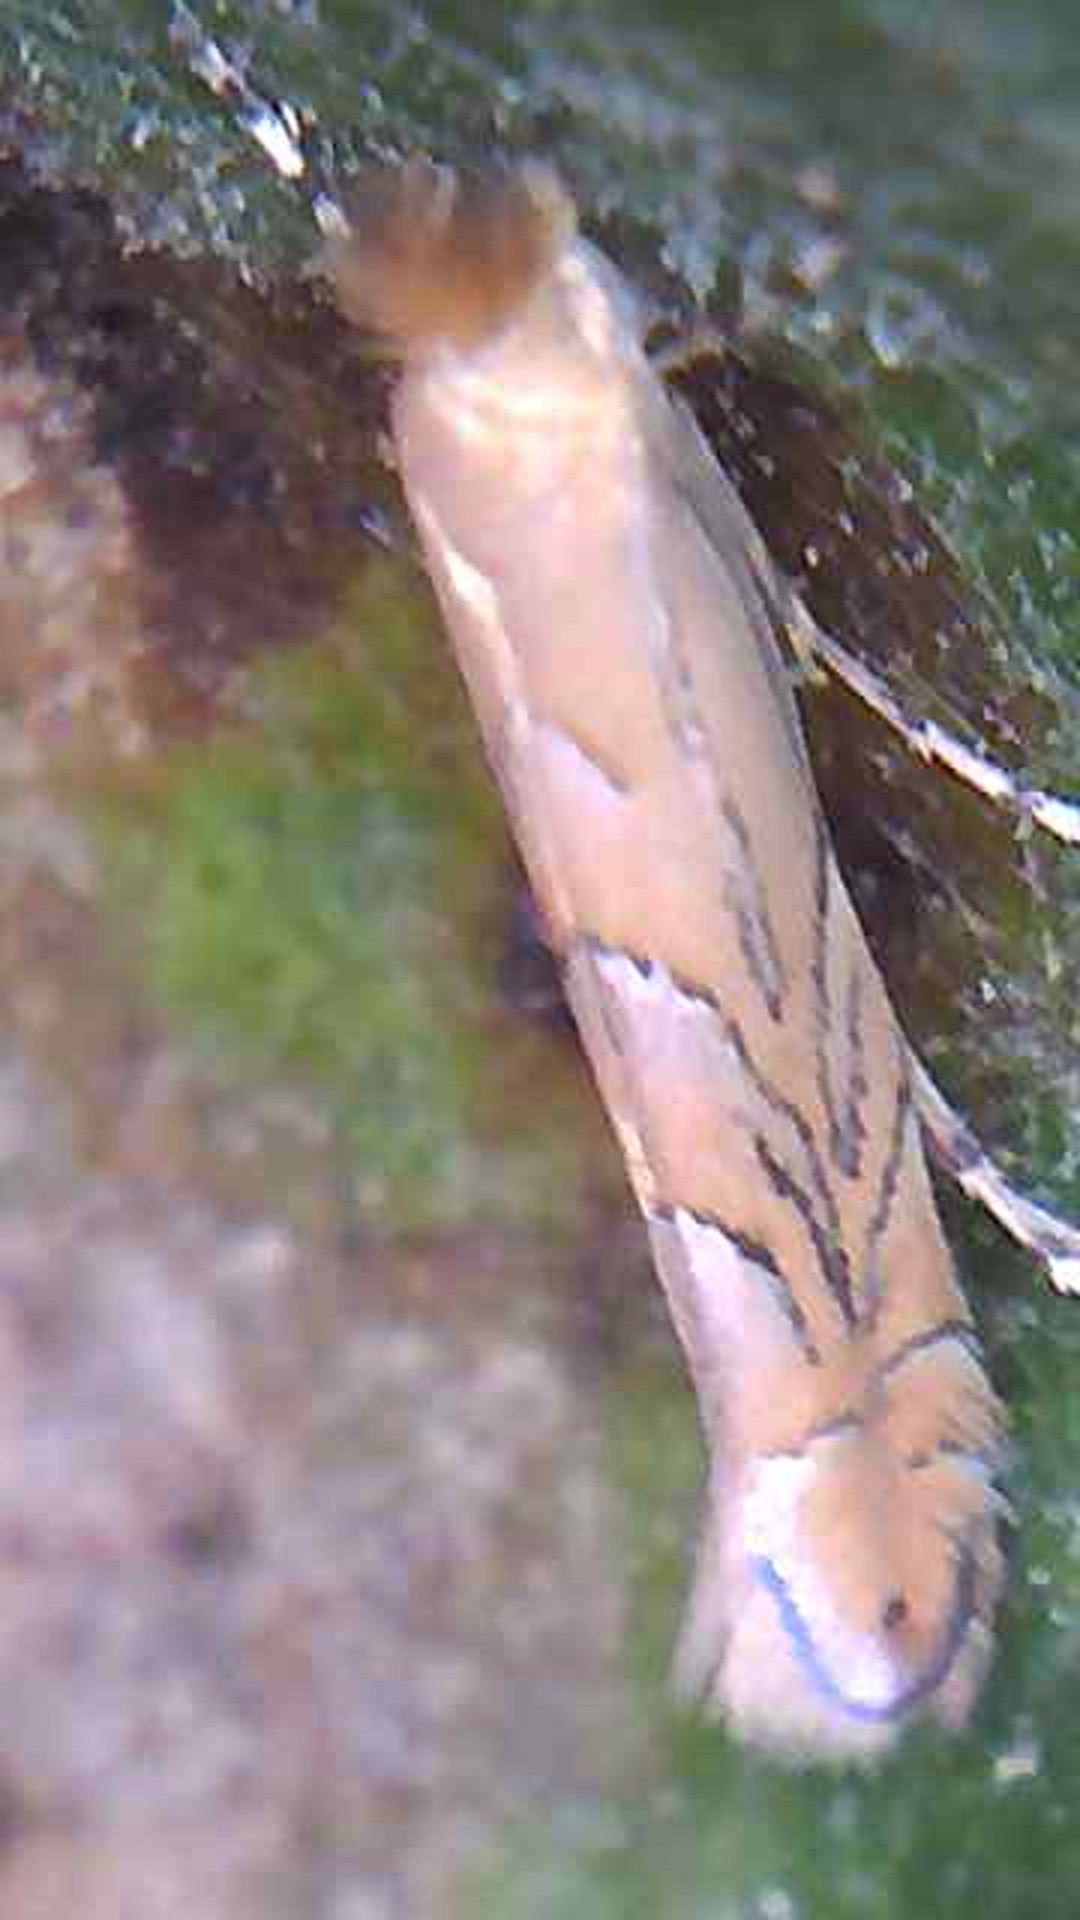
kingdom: Animalia
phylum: Arthropoda
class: Insecta
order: Lepidoptera
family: Gracillariidae
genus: Phyllonorycter
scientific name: Phyllonorycter messaniella
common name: Garden midget
